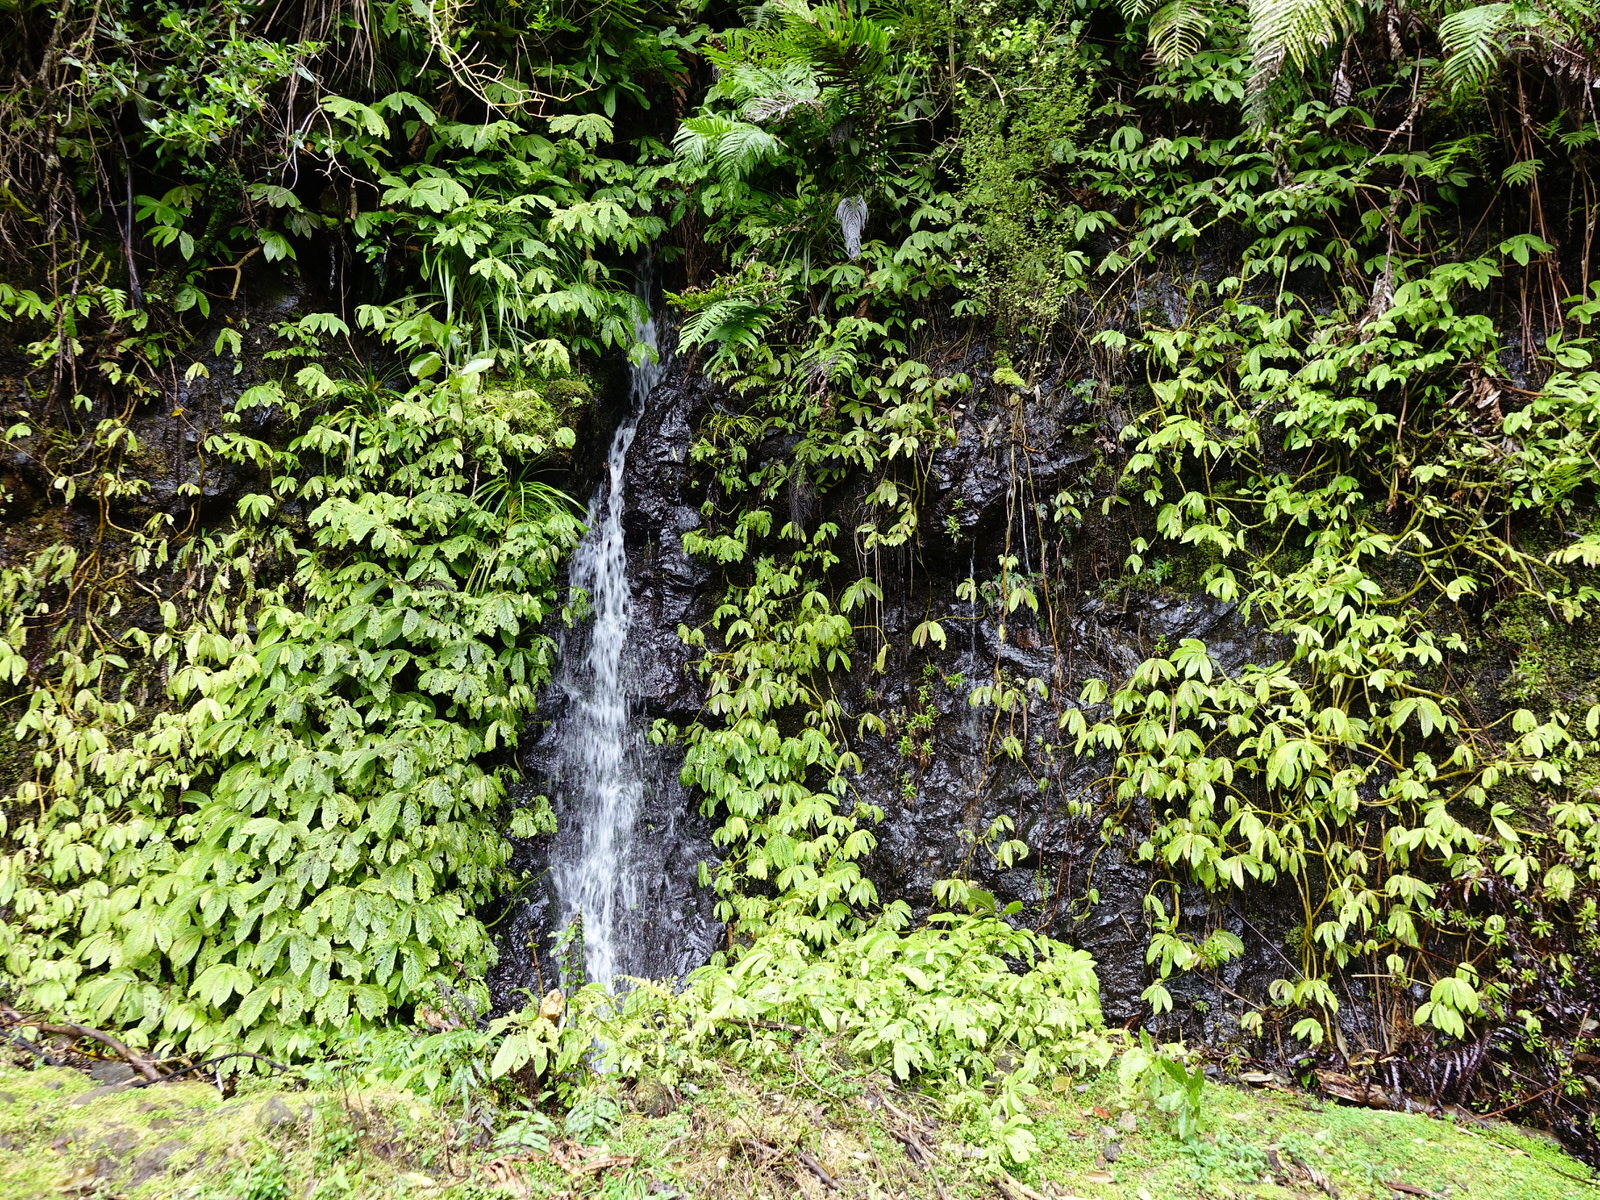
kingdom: Plantae
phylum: Tracheophyta
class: Magnoliopsida
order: Rosales
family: Urticaceae
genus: Elatostema
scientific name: Elatostema rugosum
